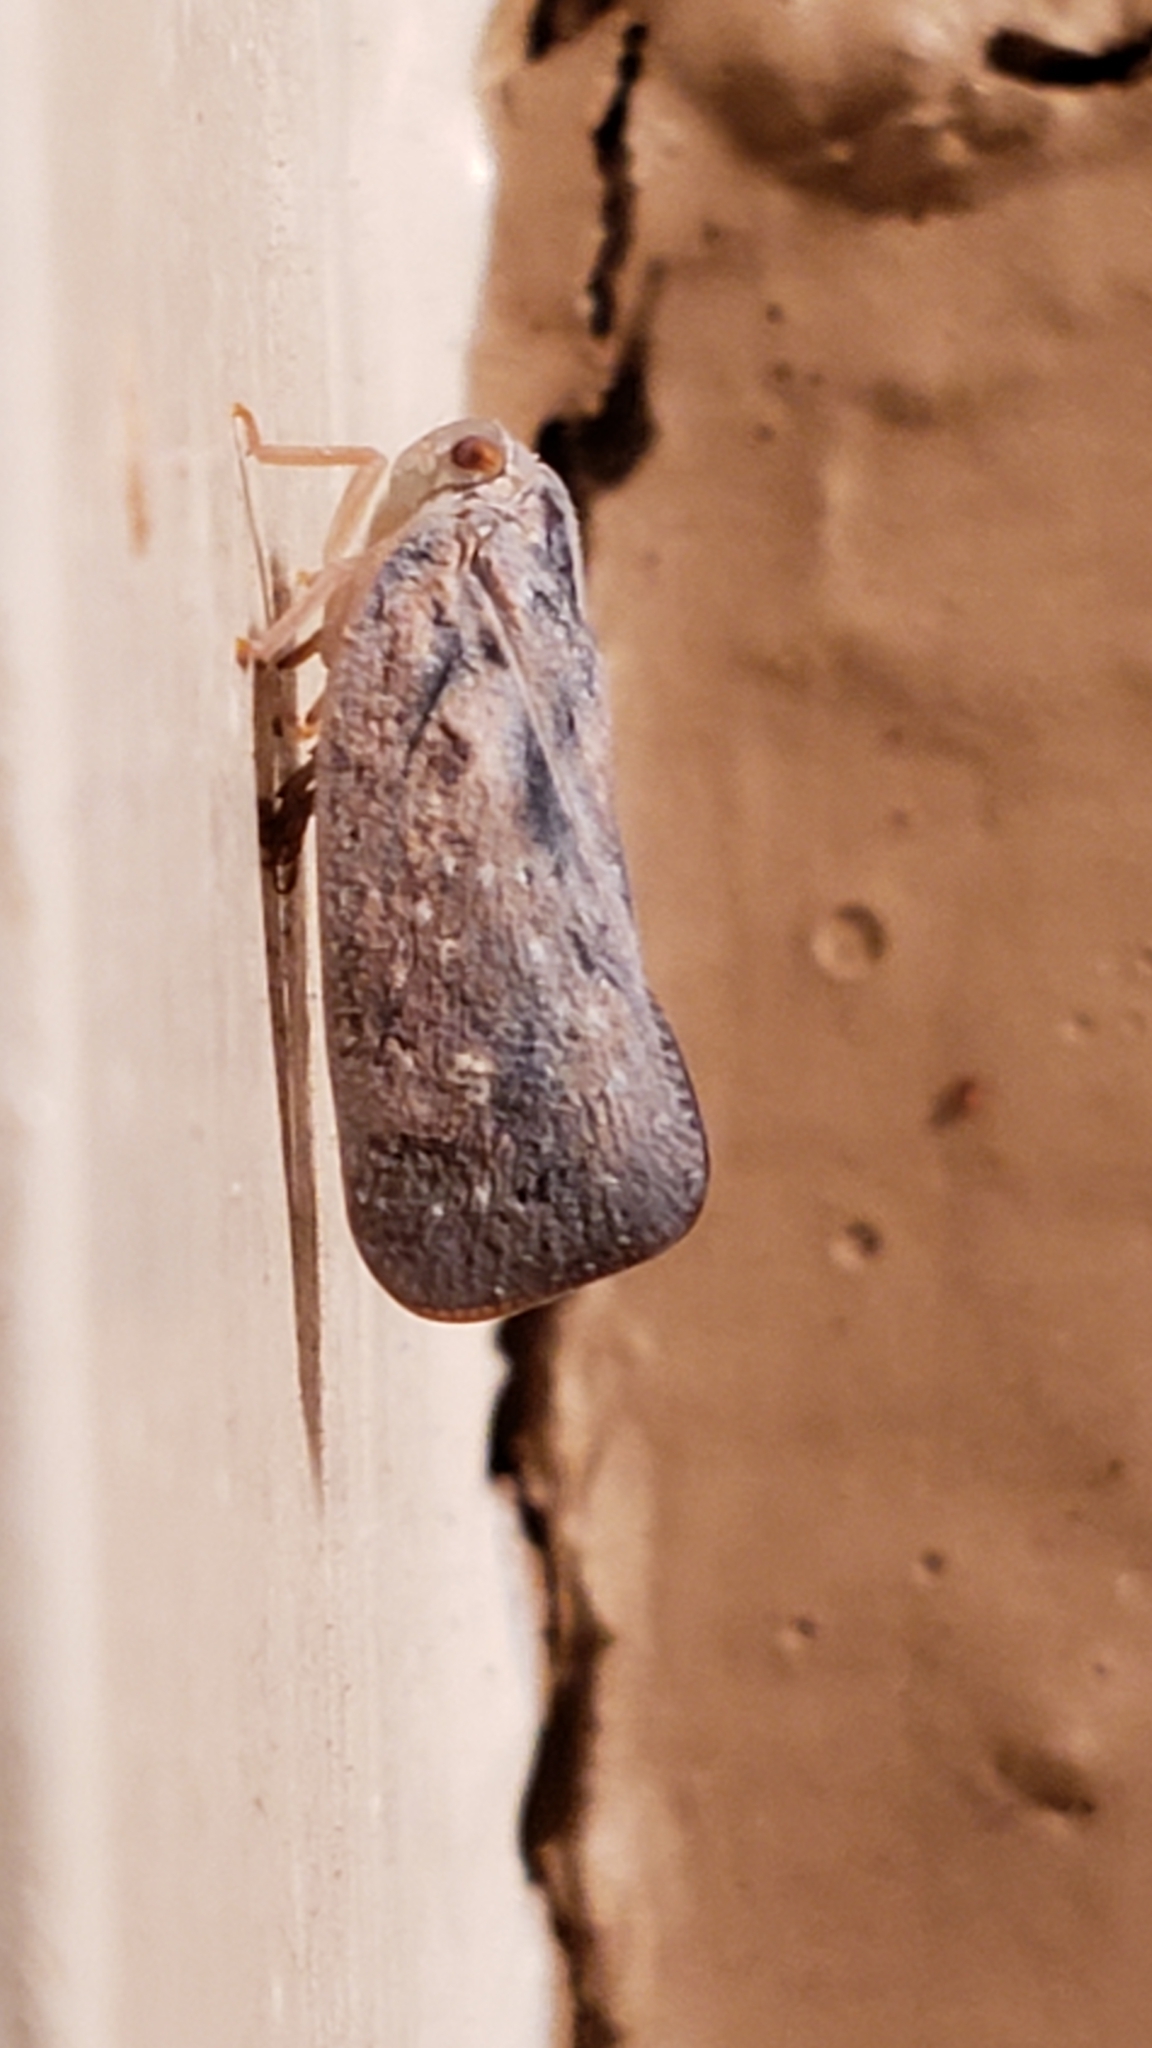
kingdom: Animalia
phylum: Arthropoda
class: Insecta
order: Hemiptera
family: Flatidae
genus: Metcalfa
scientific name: Metcalfa pruinosa
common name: Citrus flatid planthopper
